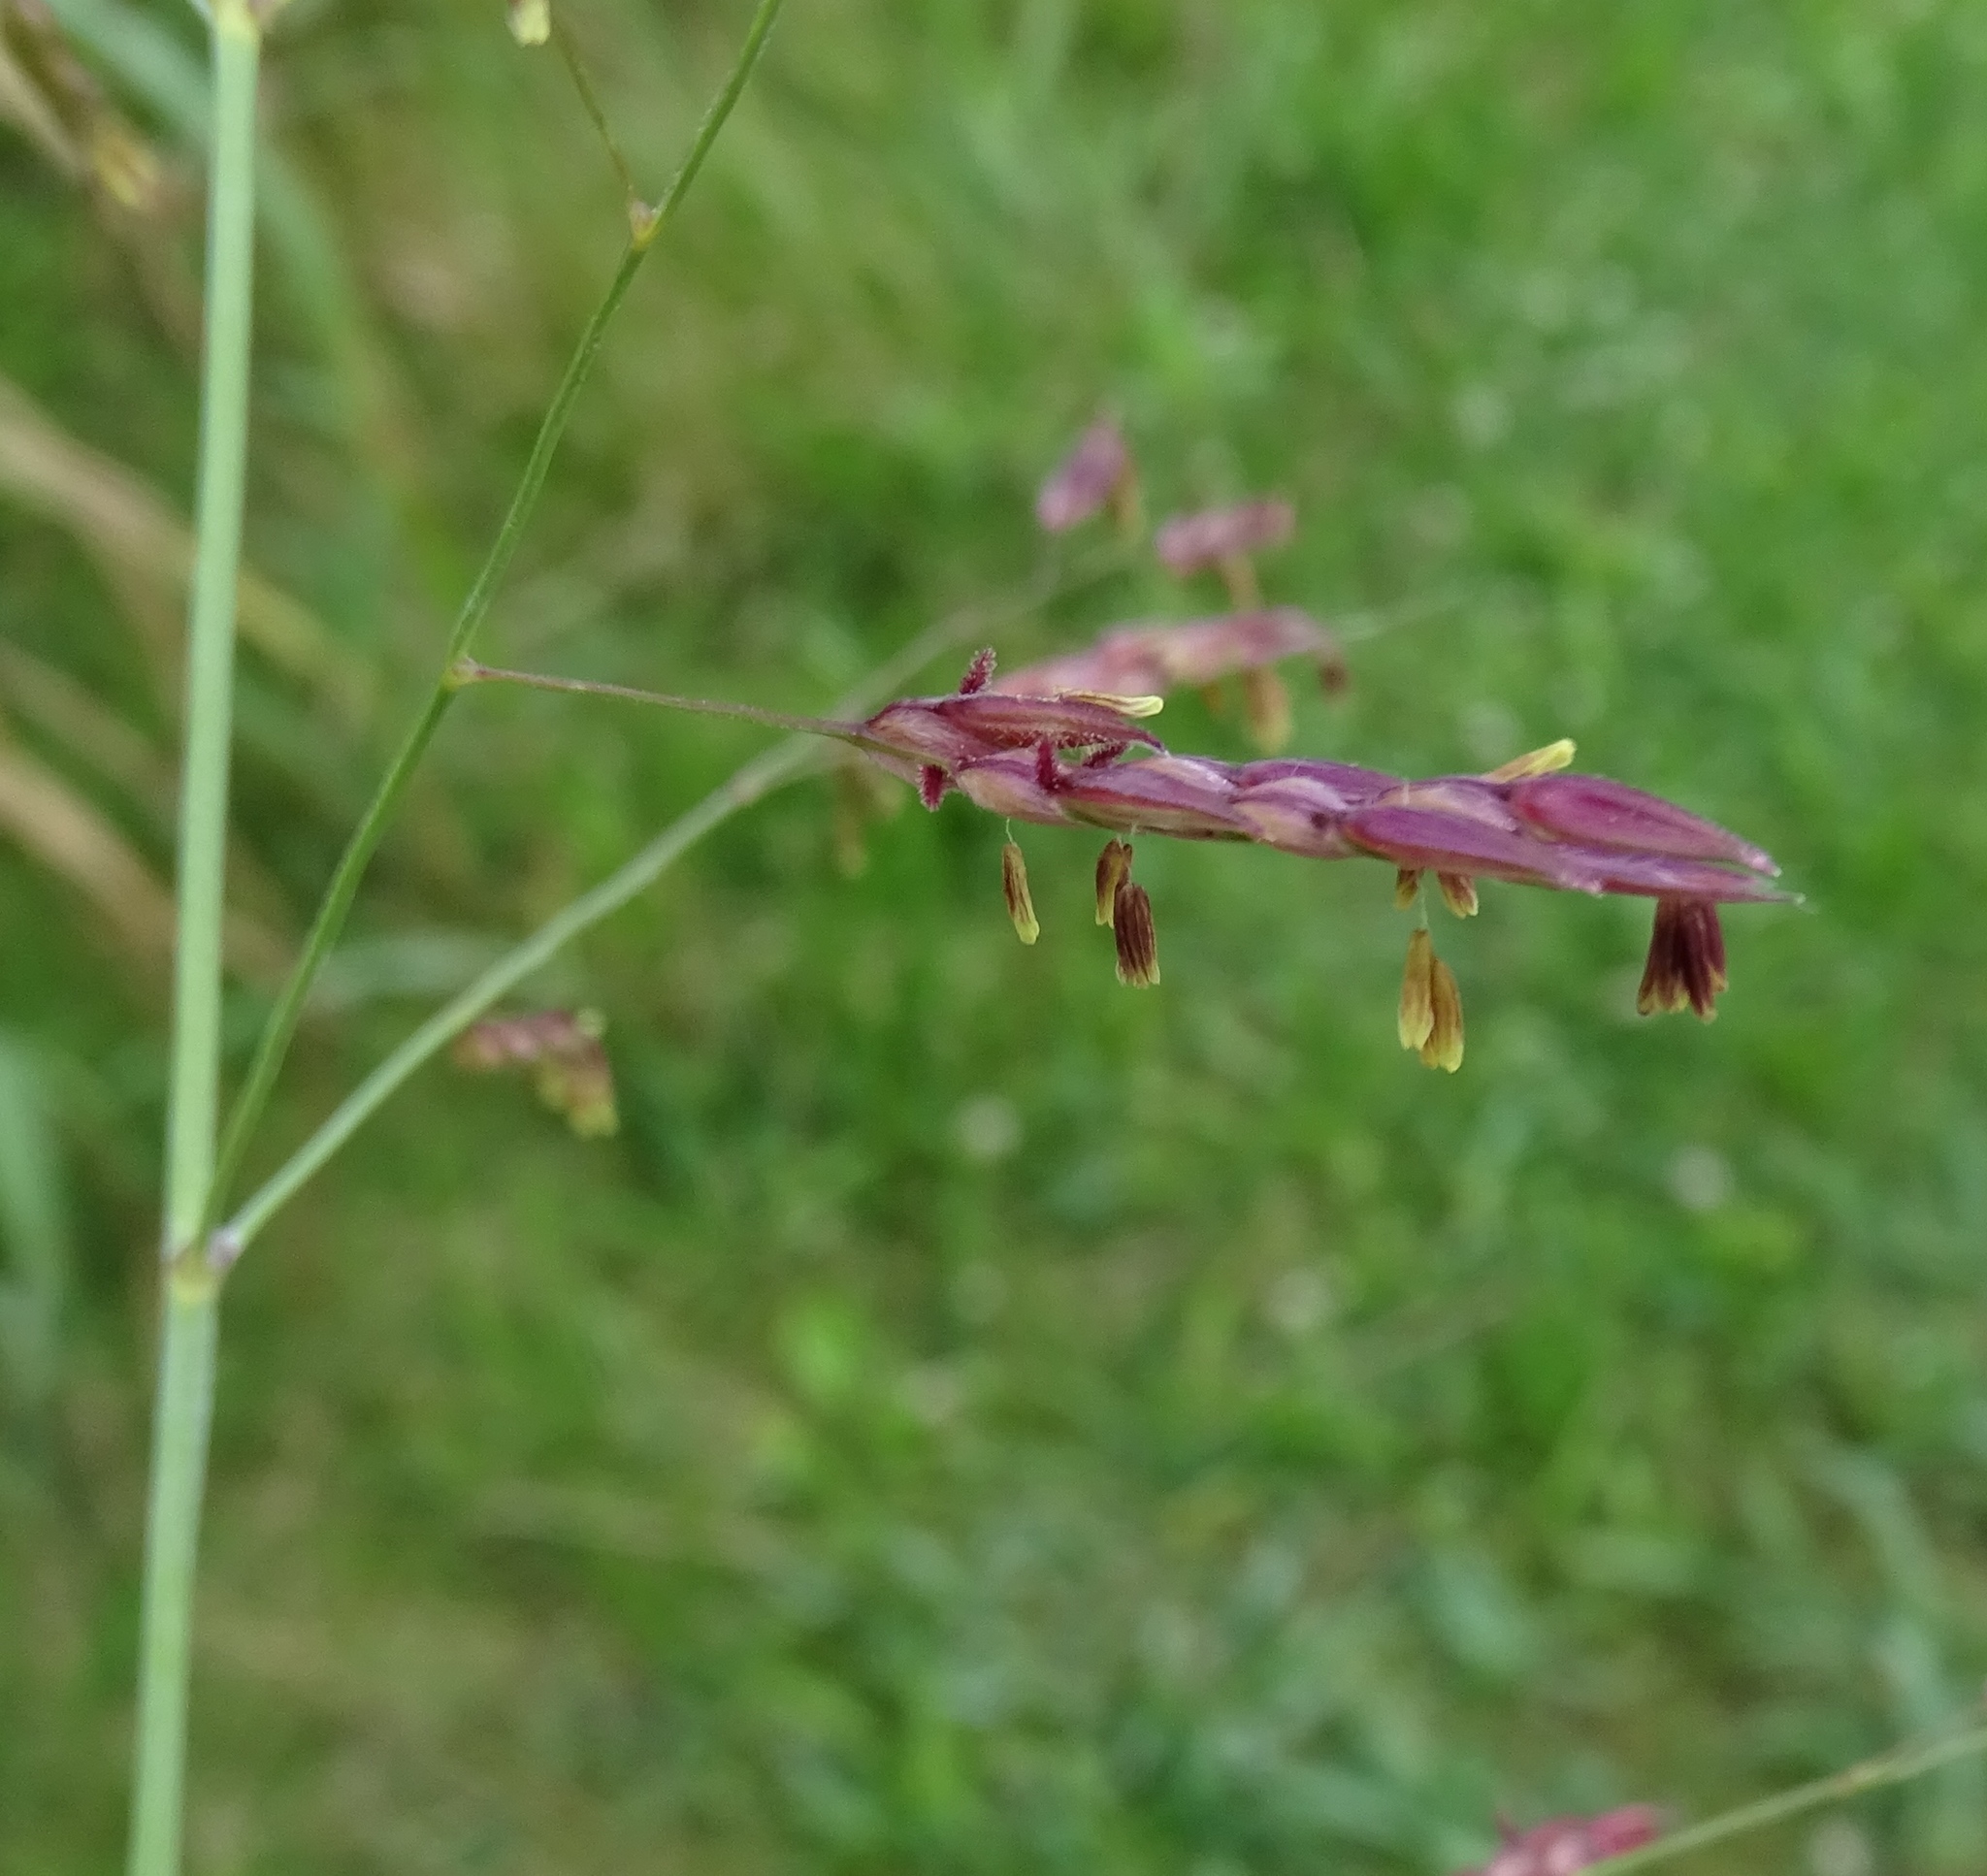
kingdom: Plantae
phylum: Tracheophyta
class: Liliopsida
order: Poales
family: Poaceae
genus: Sorghum
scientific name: Sorghum halepense
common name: Johnson-grass
